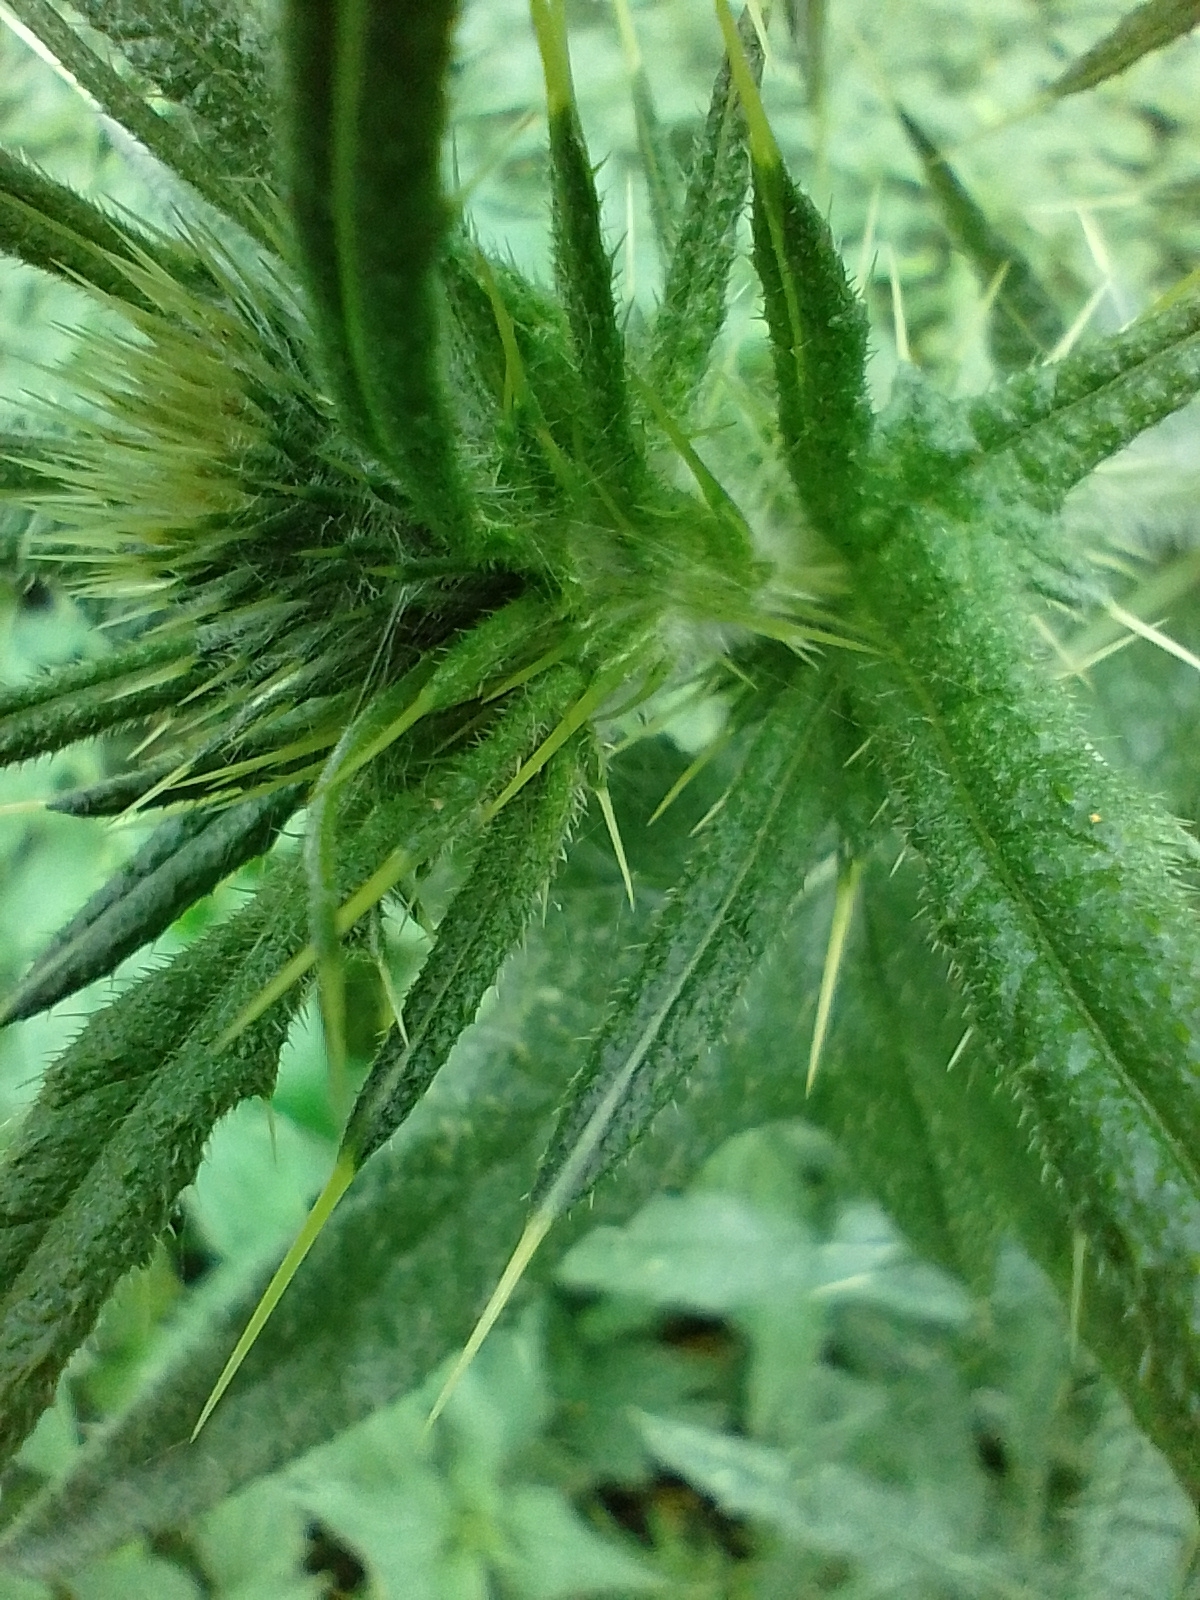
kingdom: Plantae
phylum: Tracheophyta
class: Magnoliopsida
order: Asterales
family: Asteraceae
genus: Cirsium
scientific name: Cirsium vulgare
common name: Bull thistle
